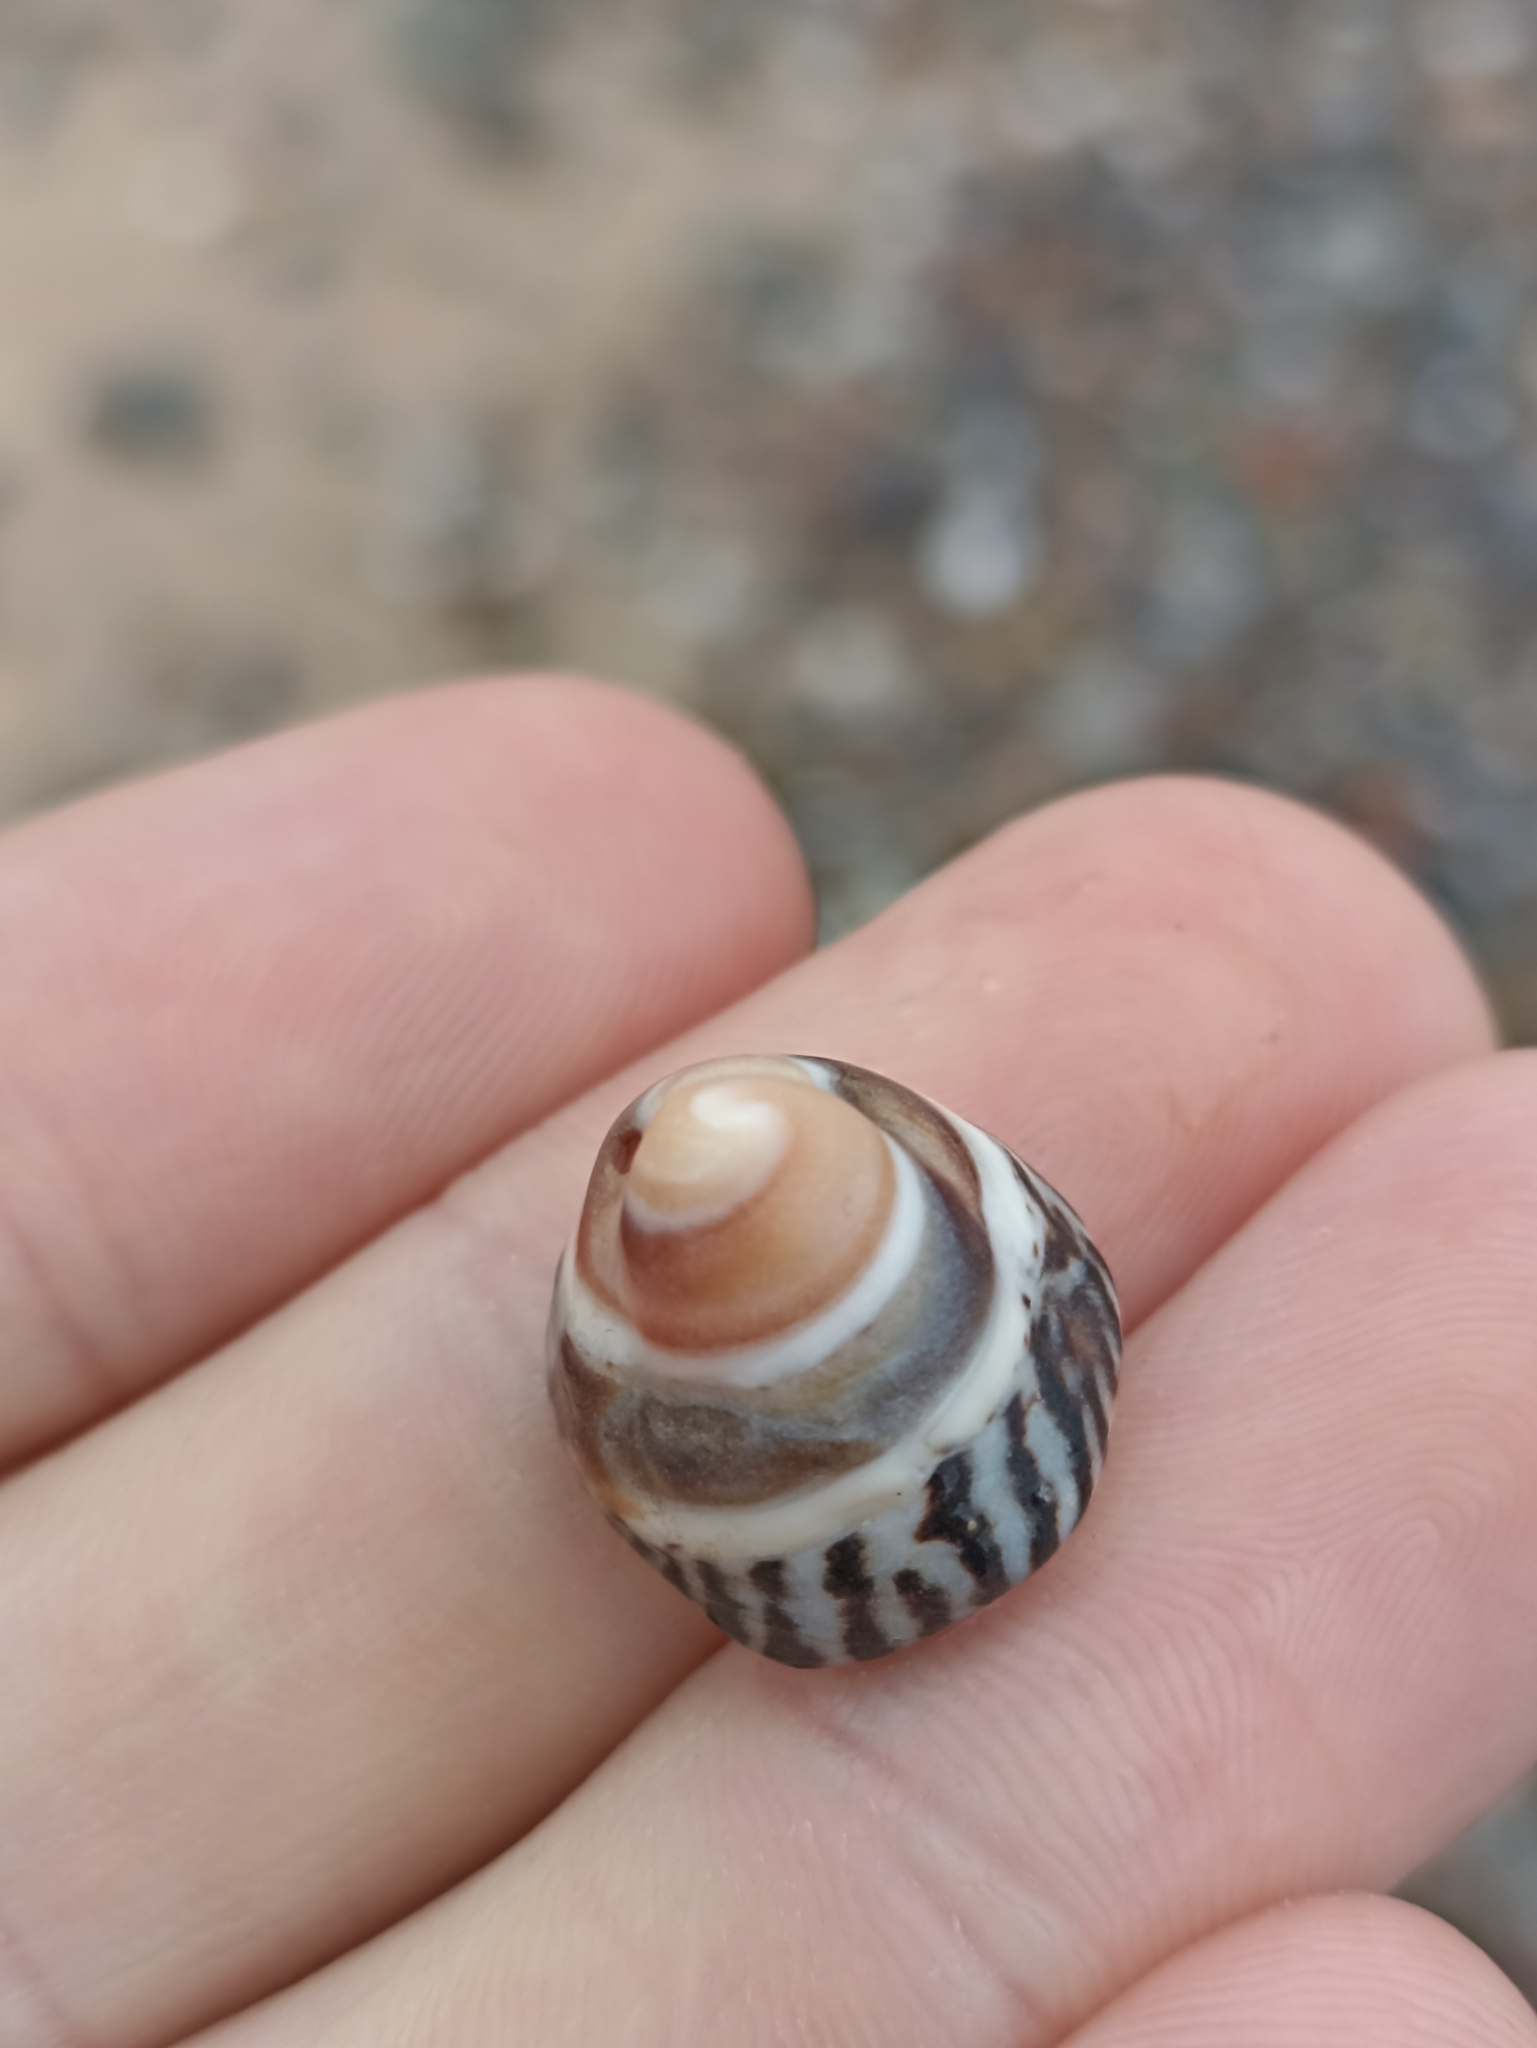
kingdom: Animalia
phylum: Mollusca
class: Gastropoda
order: Littorinimorpha
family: Littorinidae
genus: Bembicium
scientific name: Bembicium nanum
